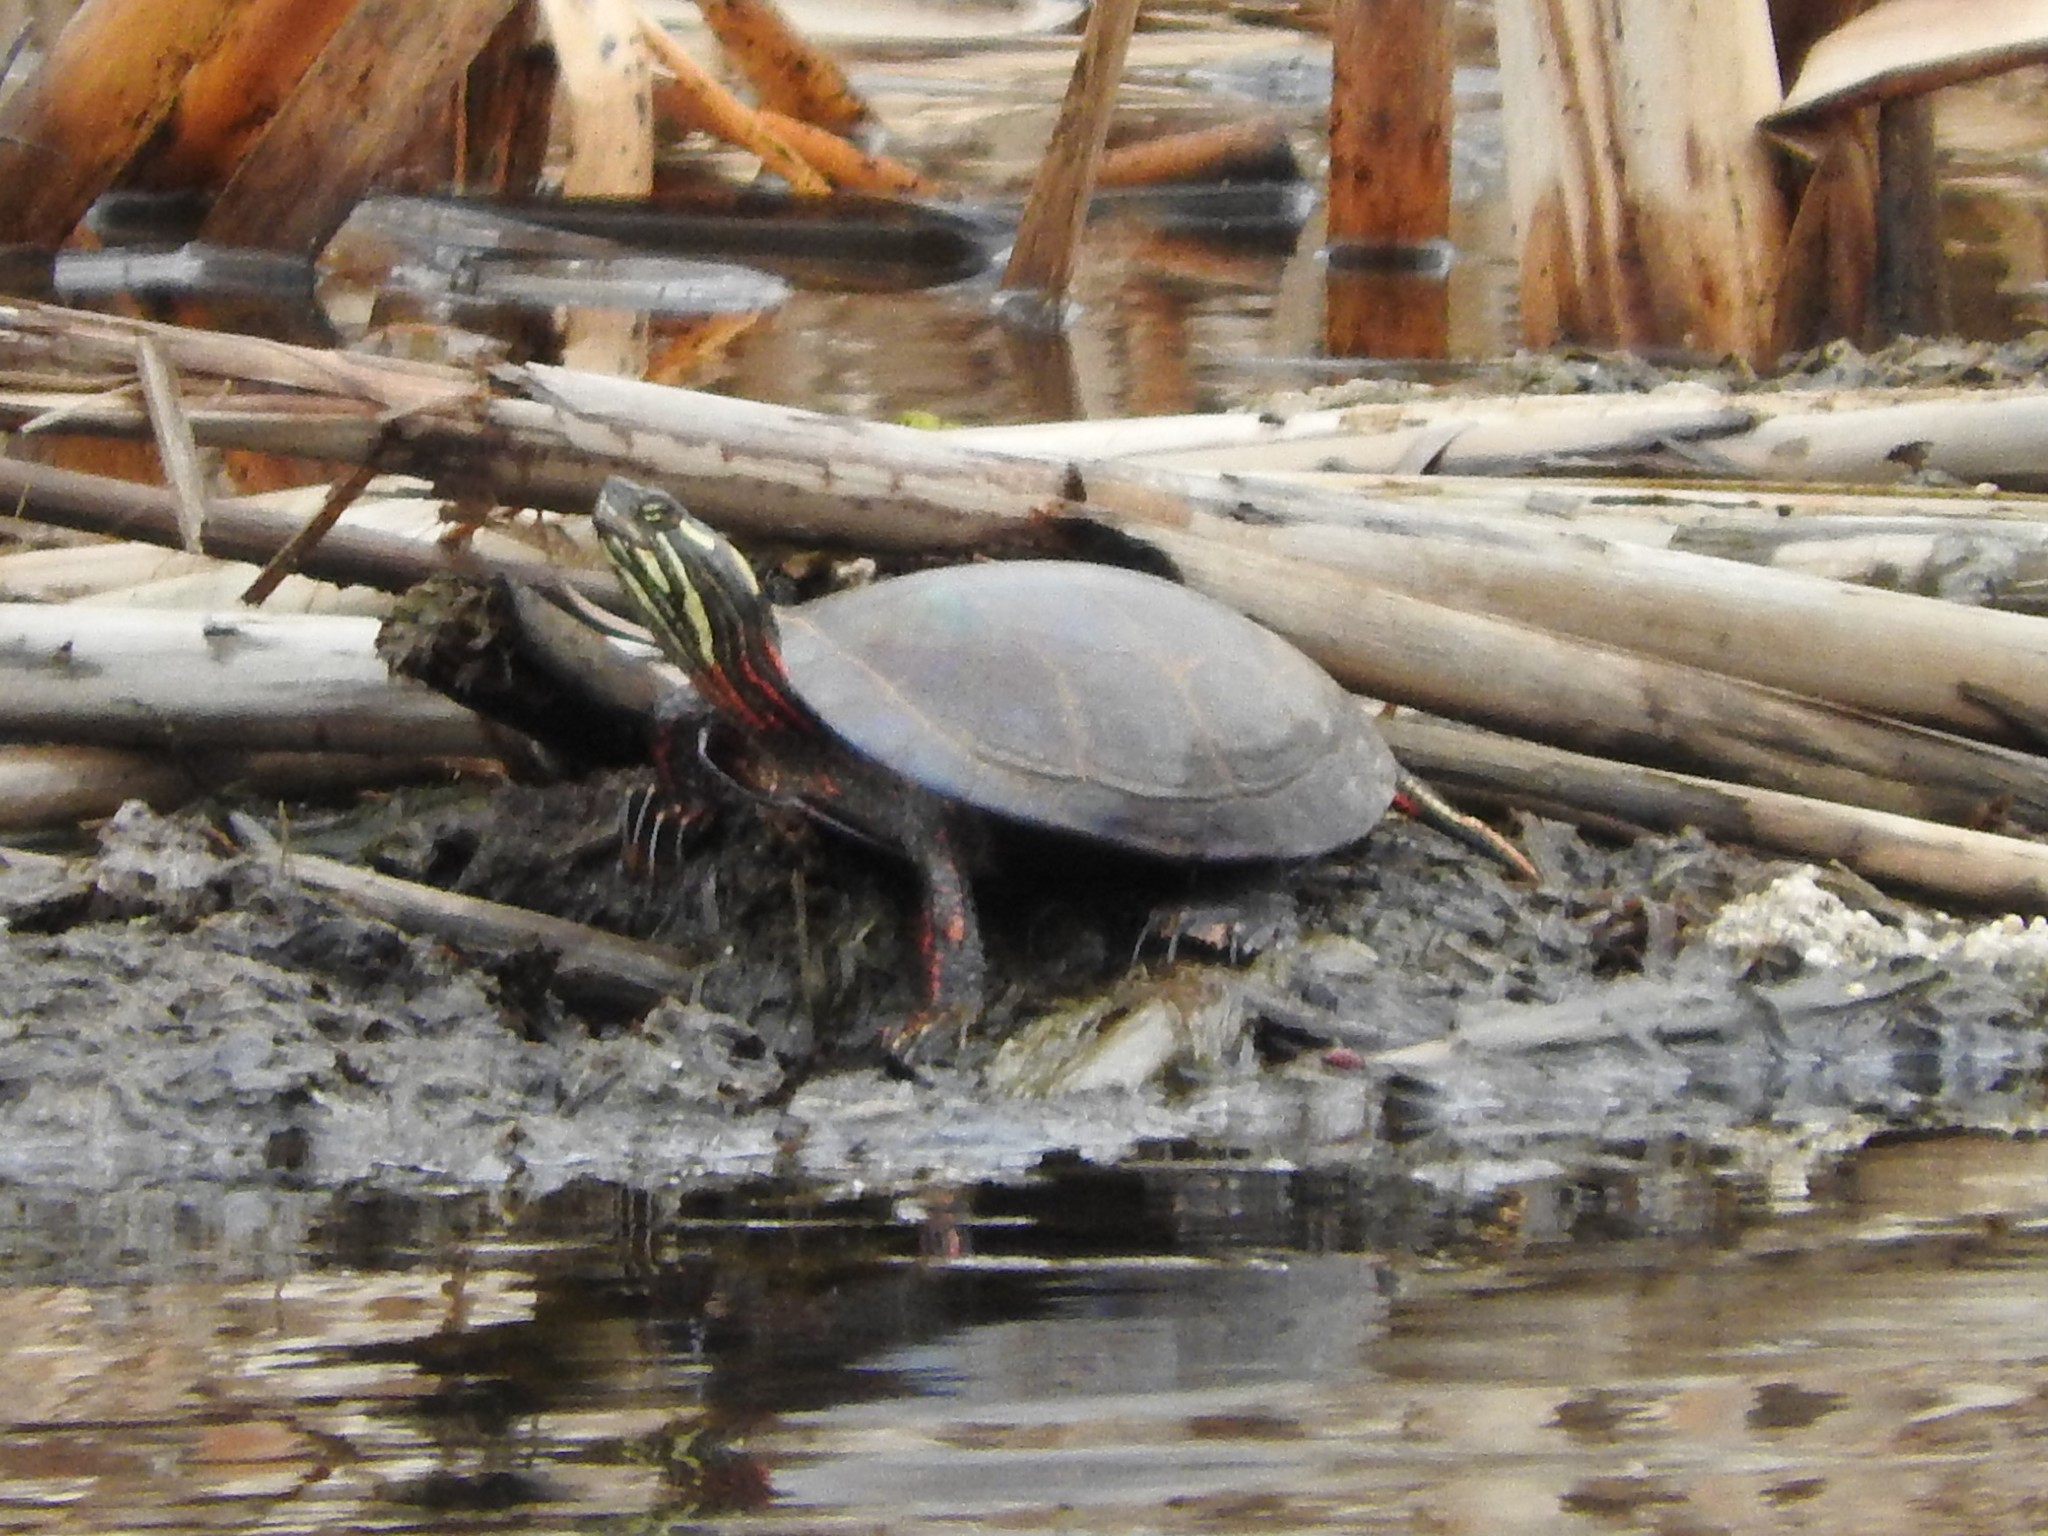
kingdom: Animalia
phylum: Chordata
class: Testudines
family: Emydidae
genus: Chrysemys
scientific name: Chrysemys picta
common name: Painted turtle
